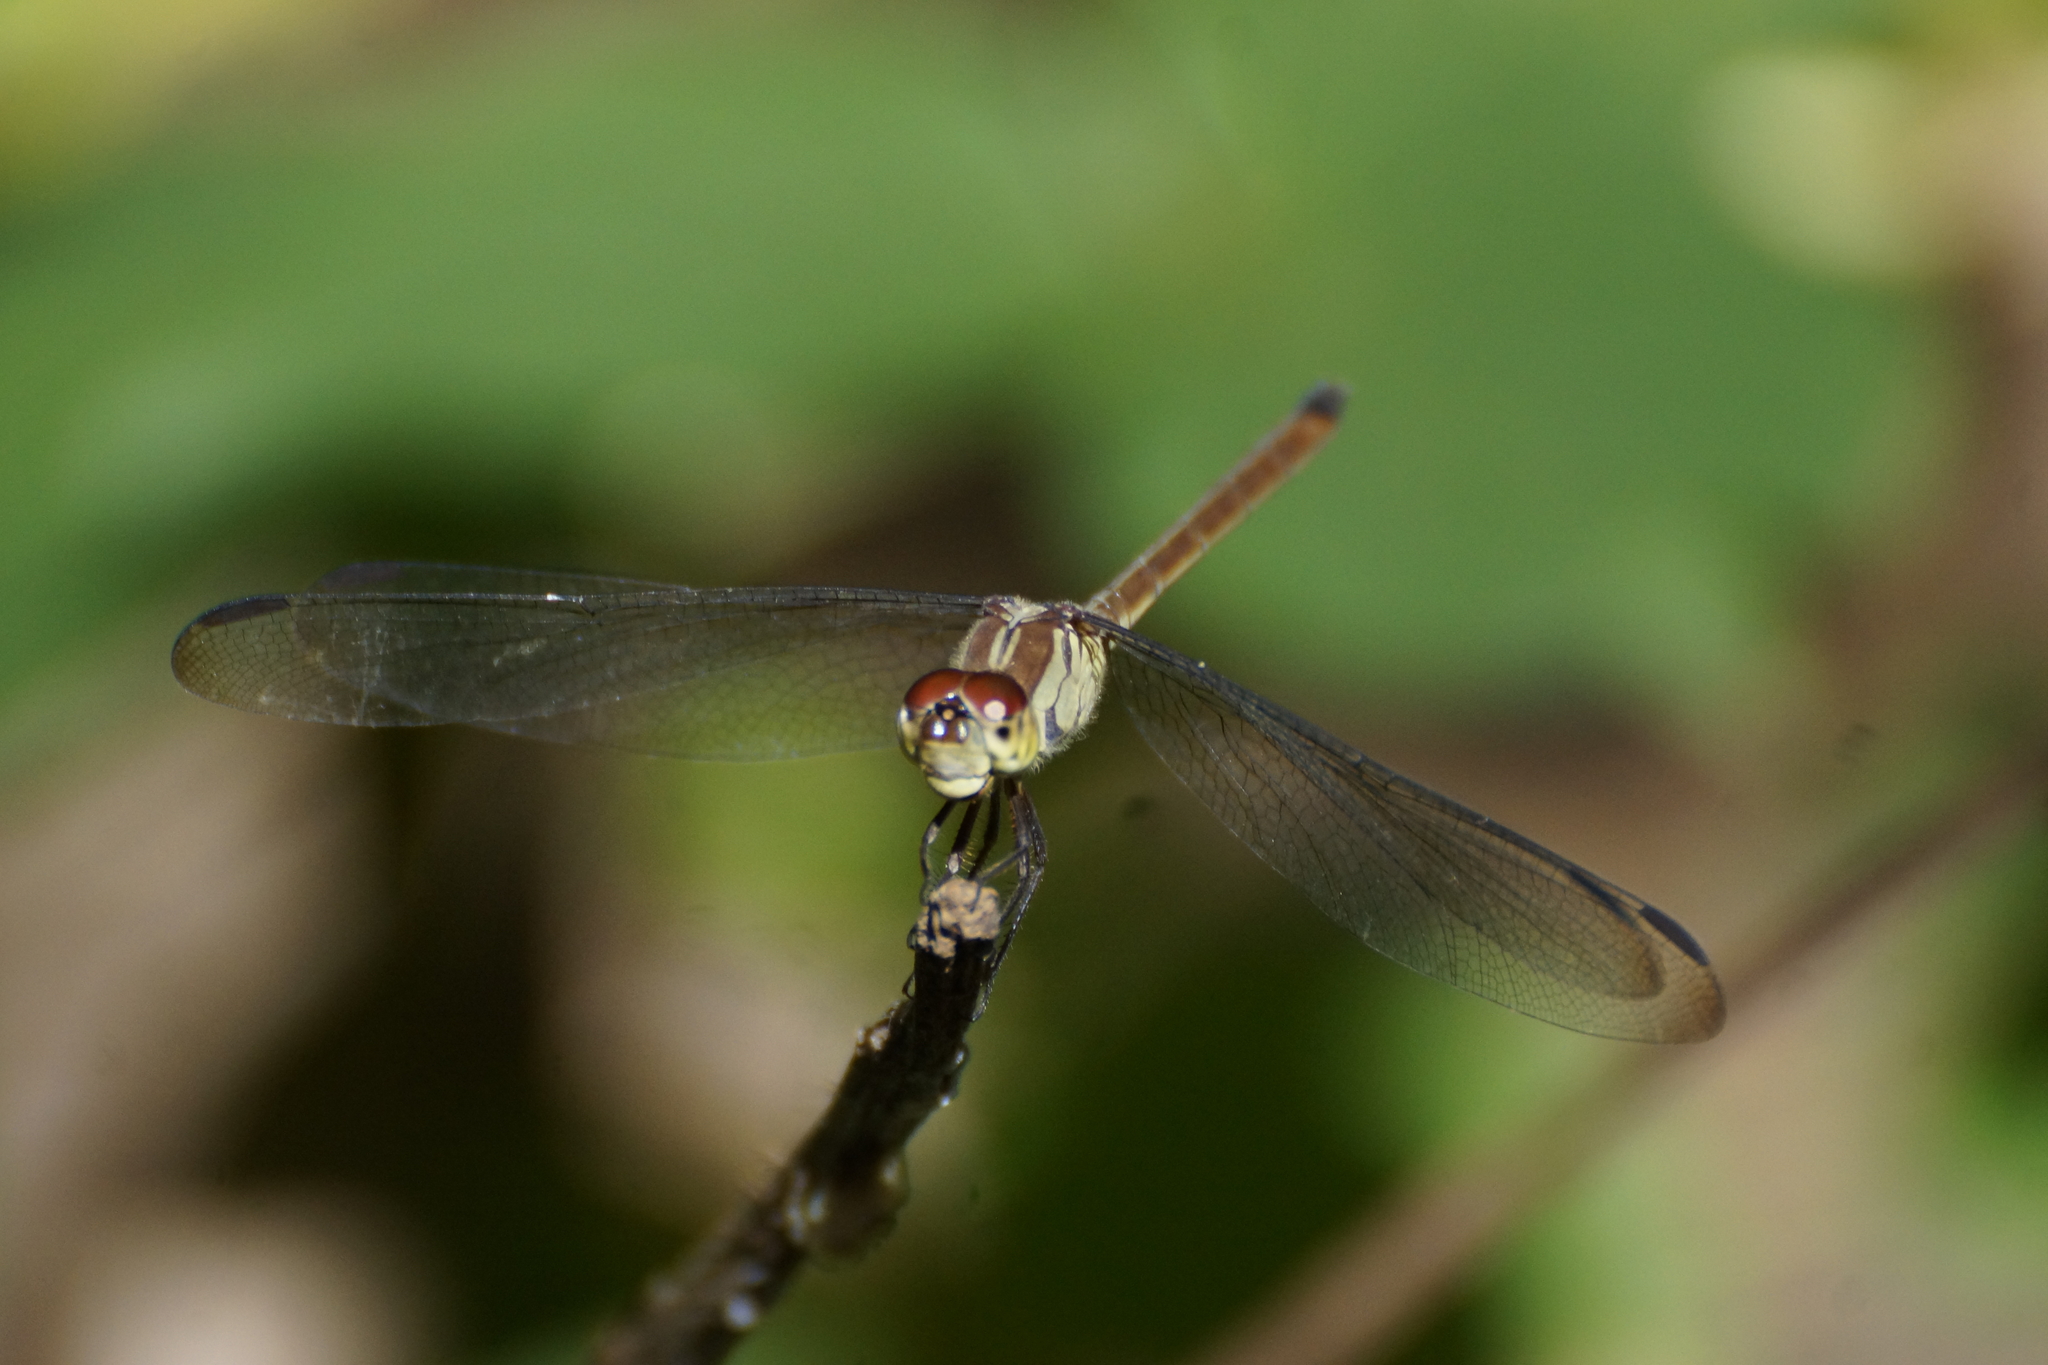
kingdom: Animalia
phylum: Arthropoda
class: Insecta
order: Odonata
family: Libellulidae
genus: Lathrecista
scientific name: Lathrecista asiatica
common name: Scarlet grenadier
